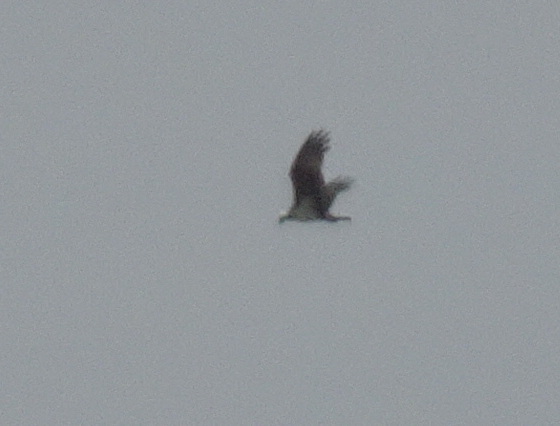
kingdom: Animalia
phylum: Chordata
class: Aves
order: Accipitriformes
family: Pandionidae
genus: Pandion
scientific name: Pandion haliaetus
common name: Osprey
